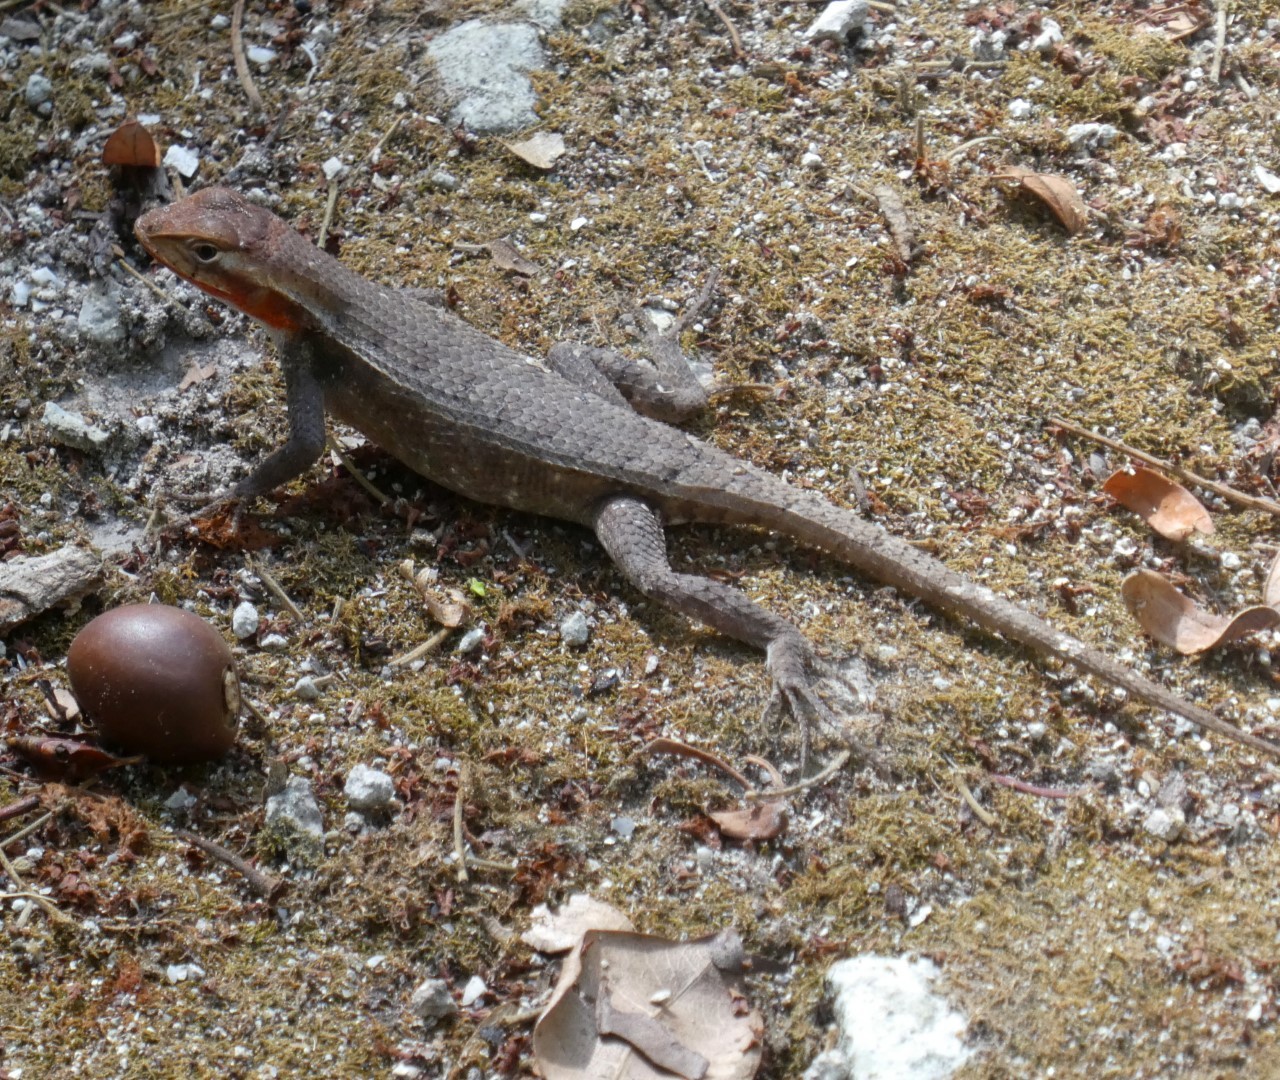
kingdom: Animalia
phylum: Chordata
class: Squamata
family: Phrynosomatidae
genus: Sceloporus
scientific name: Sceloporus chrysostictus
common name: Yellow-spotted spiny lizard
